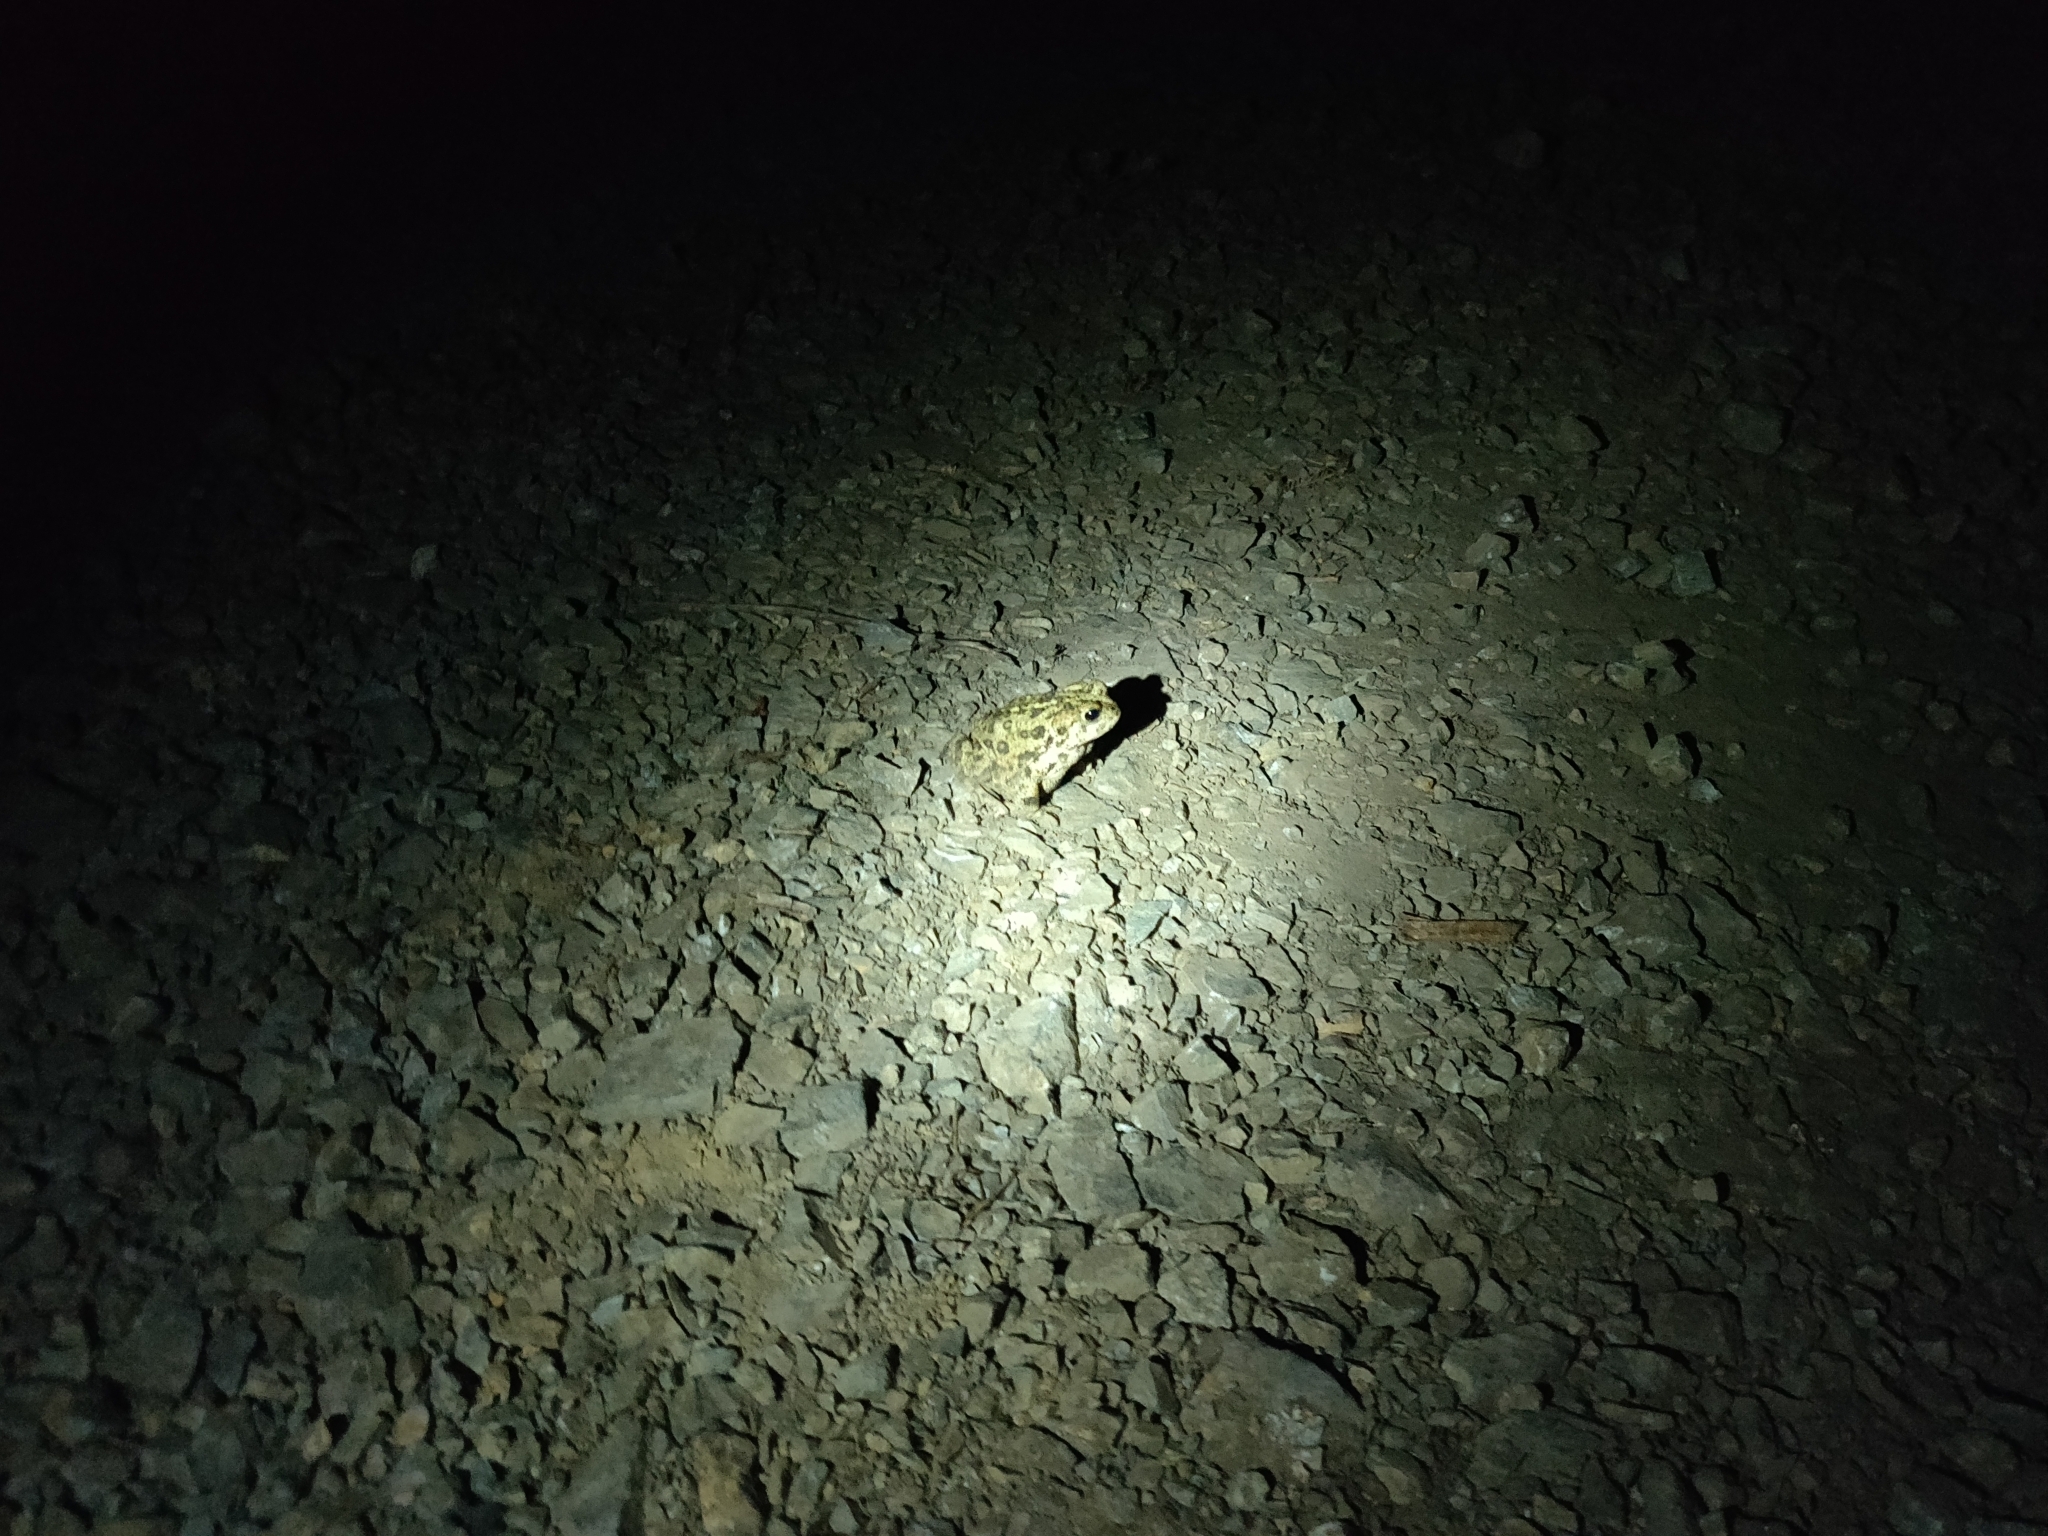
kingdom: Animalia
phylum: Chordata
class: Amphibia
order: Anura
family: Bufonidae
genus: Anaxyrus
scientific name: Anaxyrus boreas
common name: Western toad
